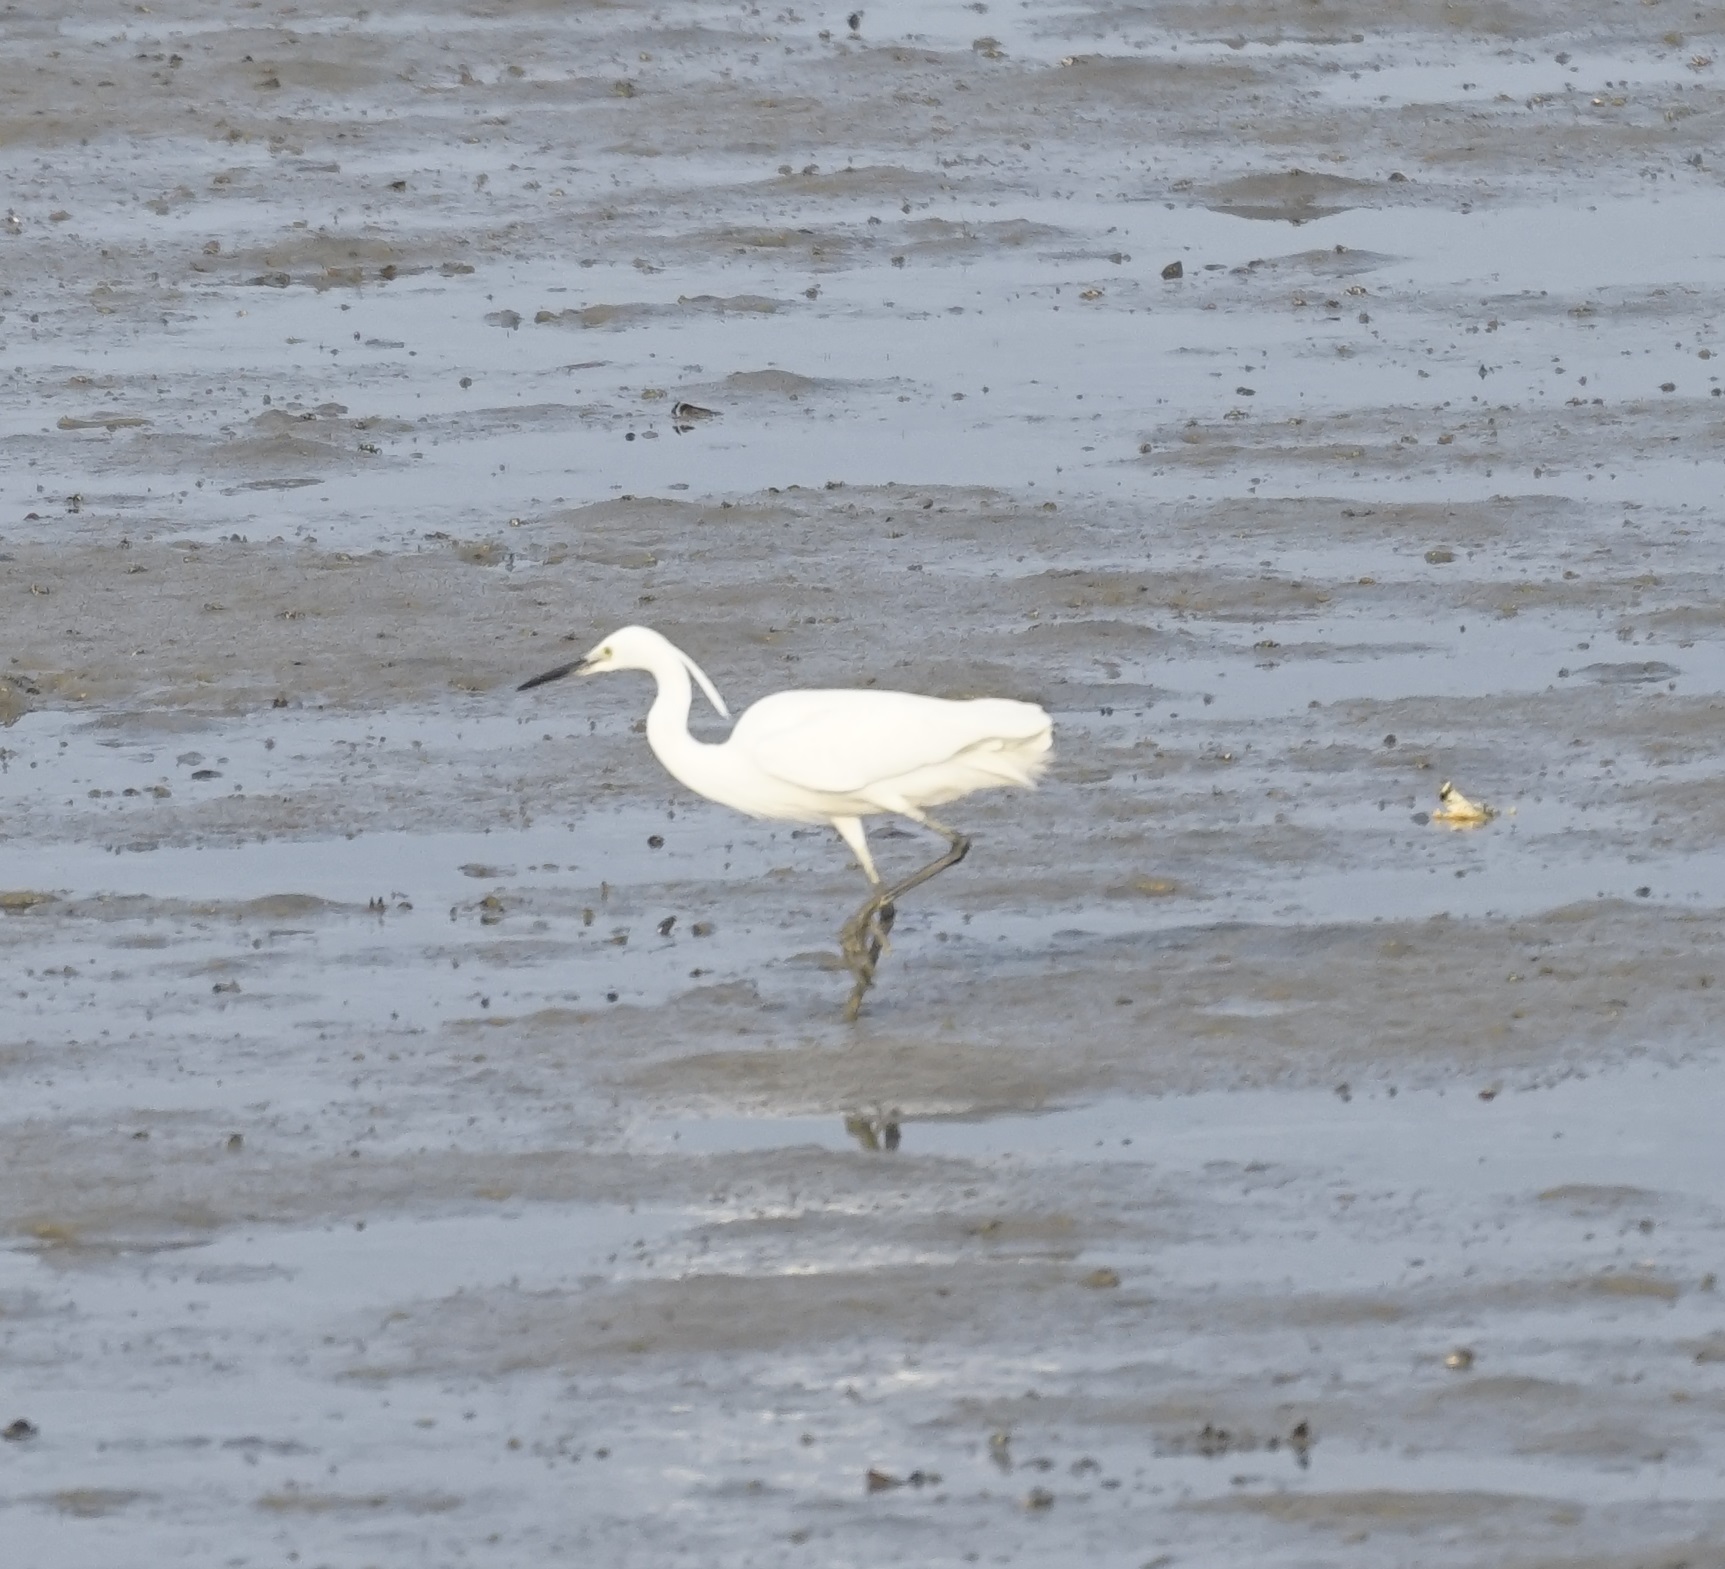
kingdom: Animalia
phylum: Chordata
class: Aves
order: Pelecaniformes
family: Ardeidae
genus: Egretta
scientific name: Egretta garzetta
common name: Little egret
